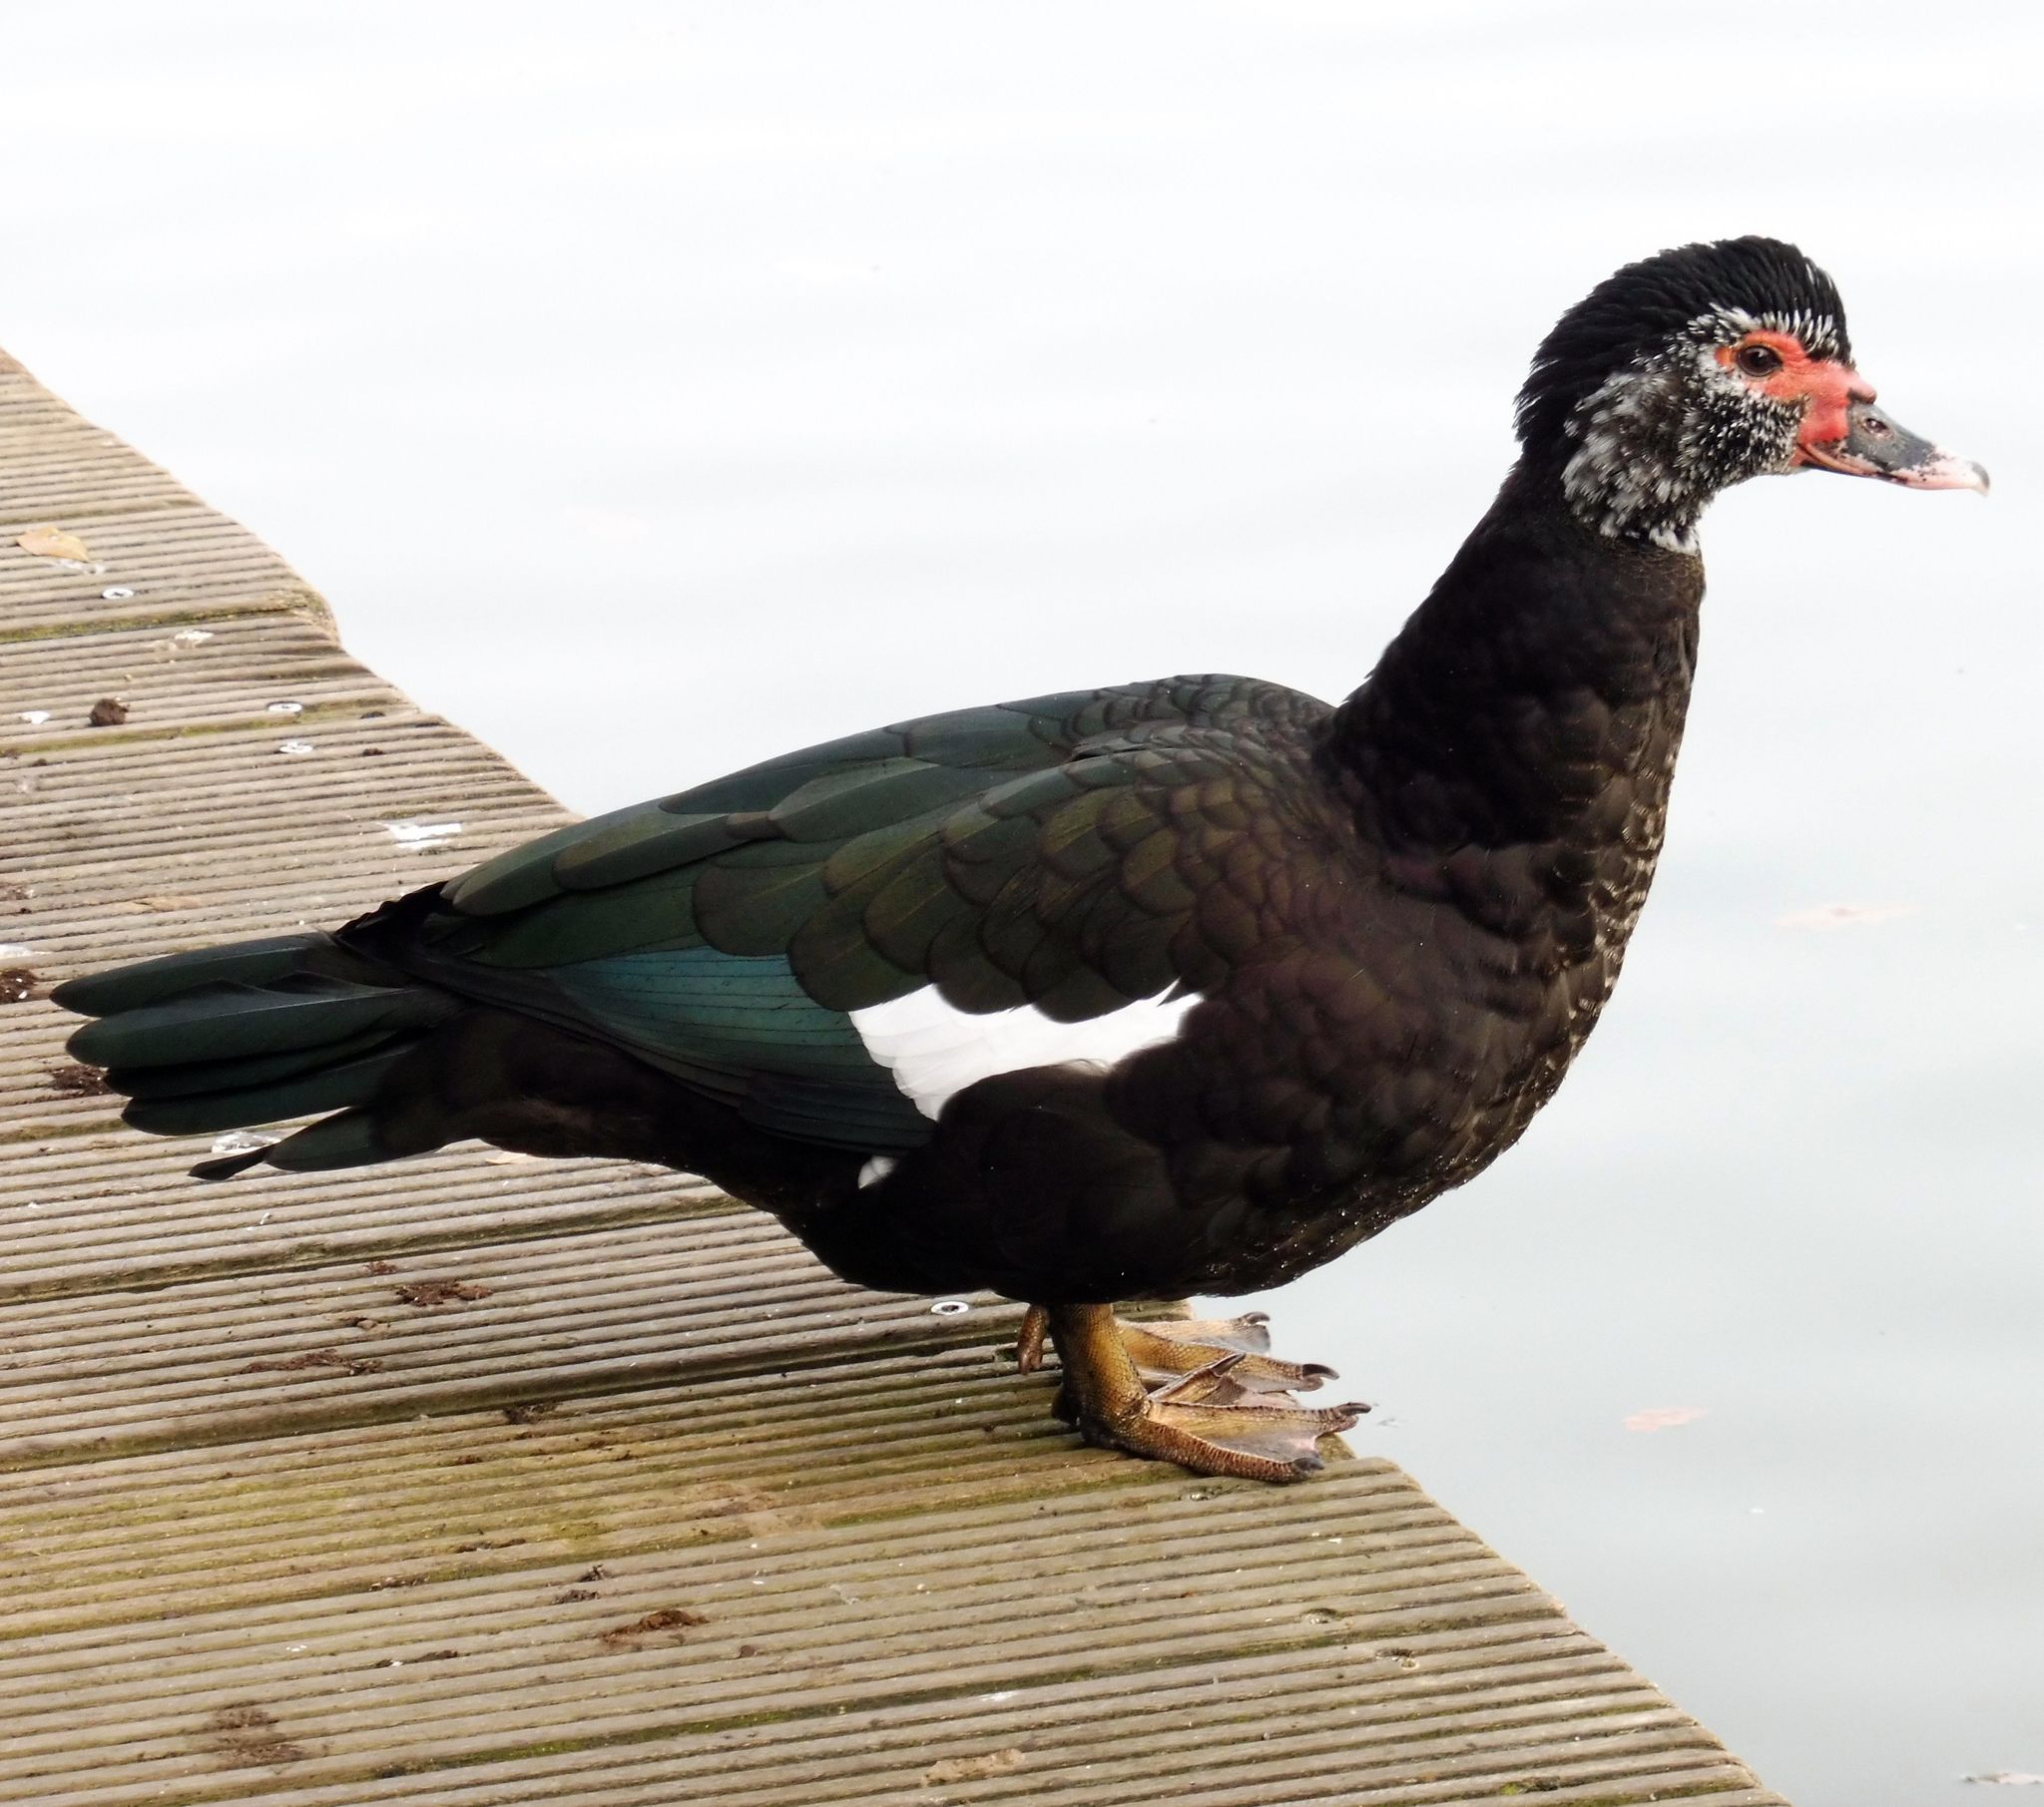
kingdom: Animalia
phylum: Chordata
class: Aves
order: Anseriformes
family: Anatidae
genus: Cairina
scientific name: Cairina moschata
